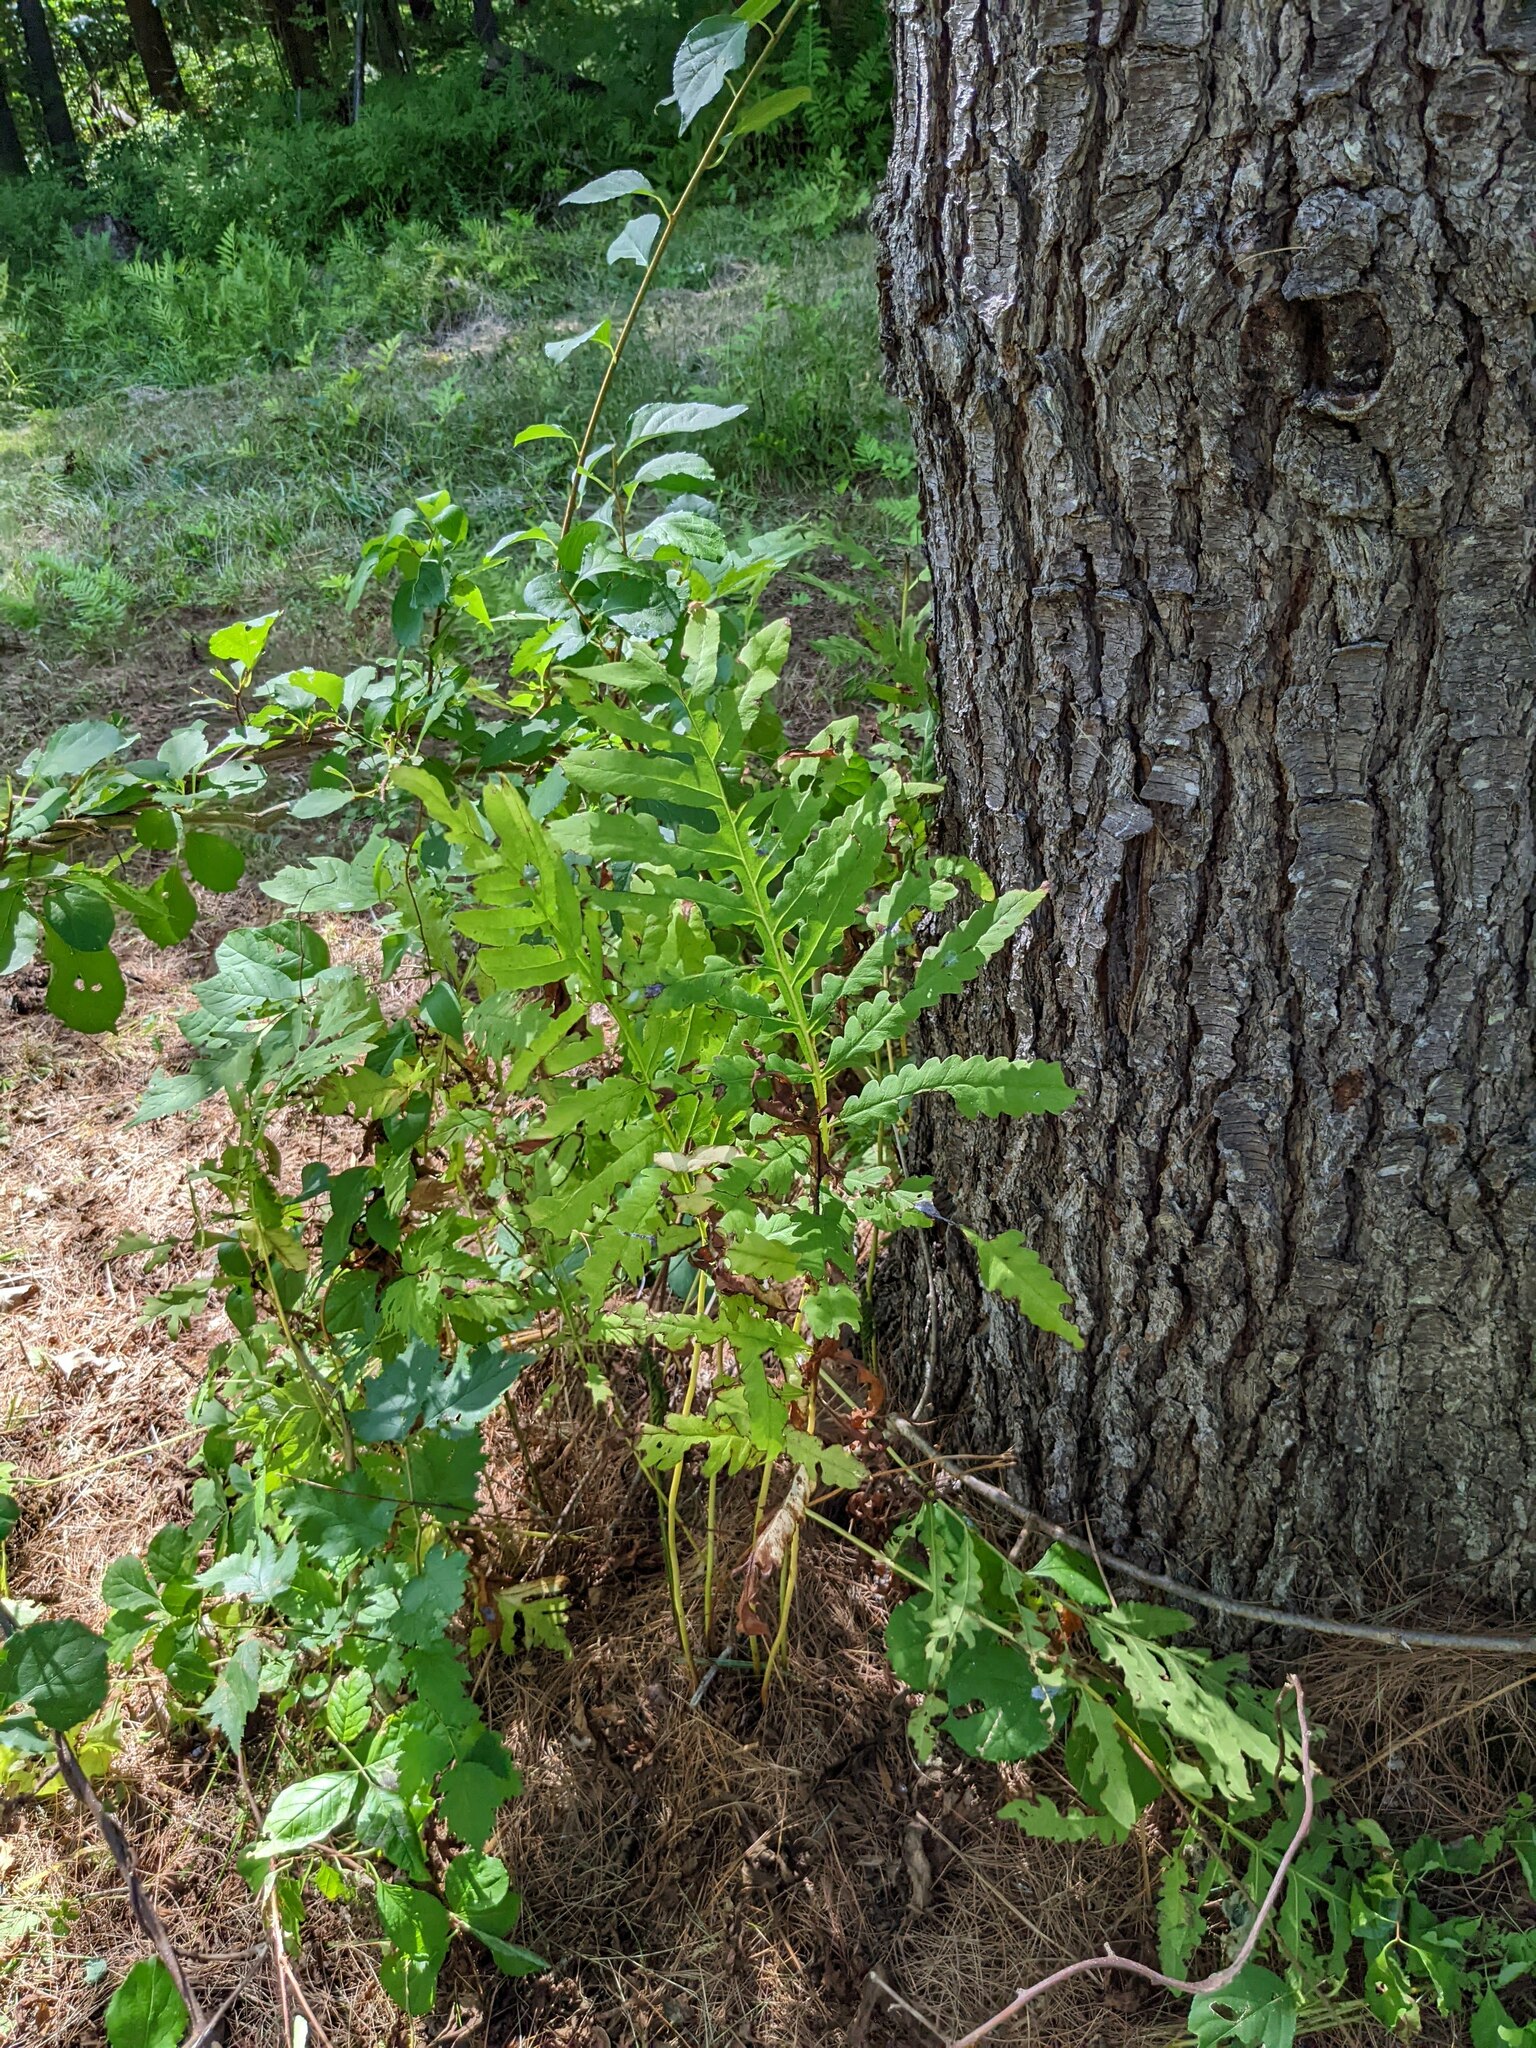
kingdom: Plantae
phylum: Tracheophyta
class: Polypodiopsida
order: Polypodiales
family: Onocleaceae
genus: Onoclea
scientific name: Onoclea sensibilis
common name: Sensitive fern
